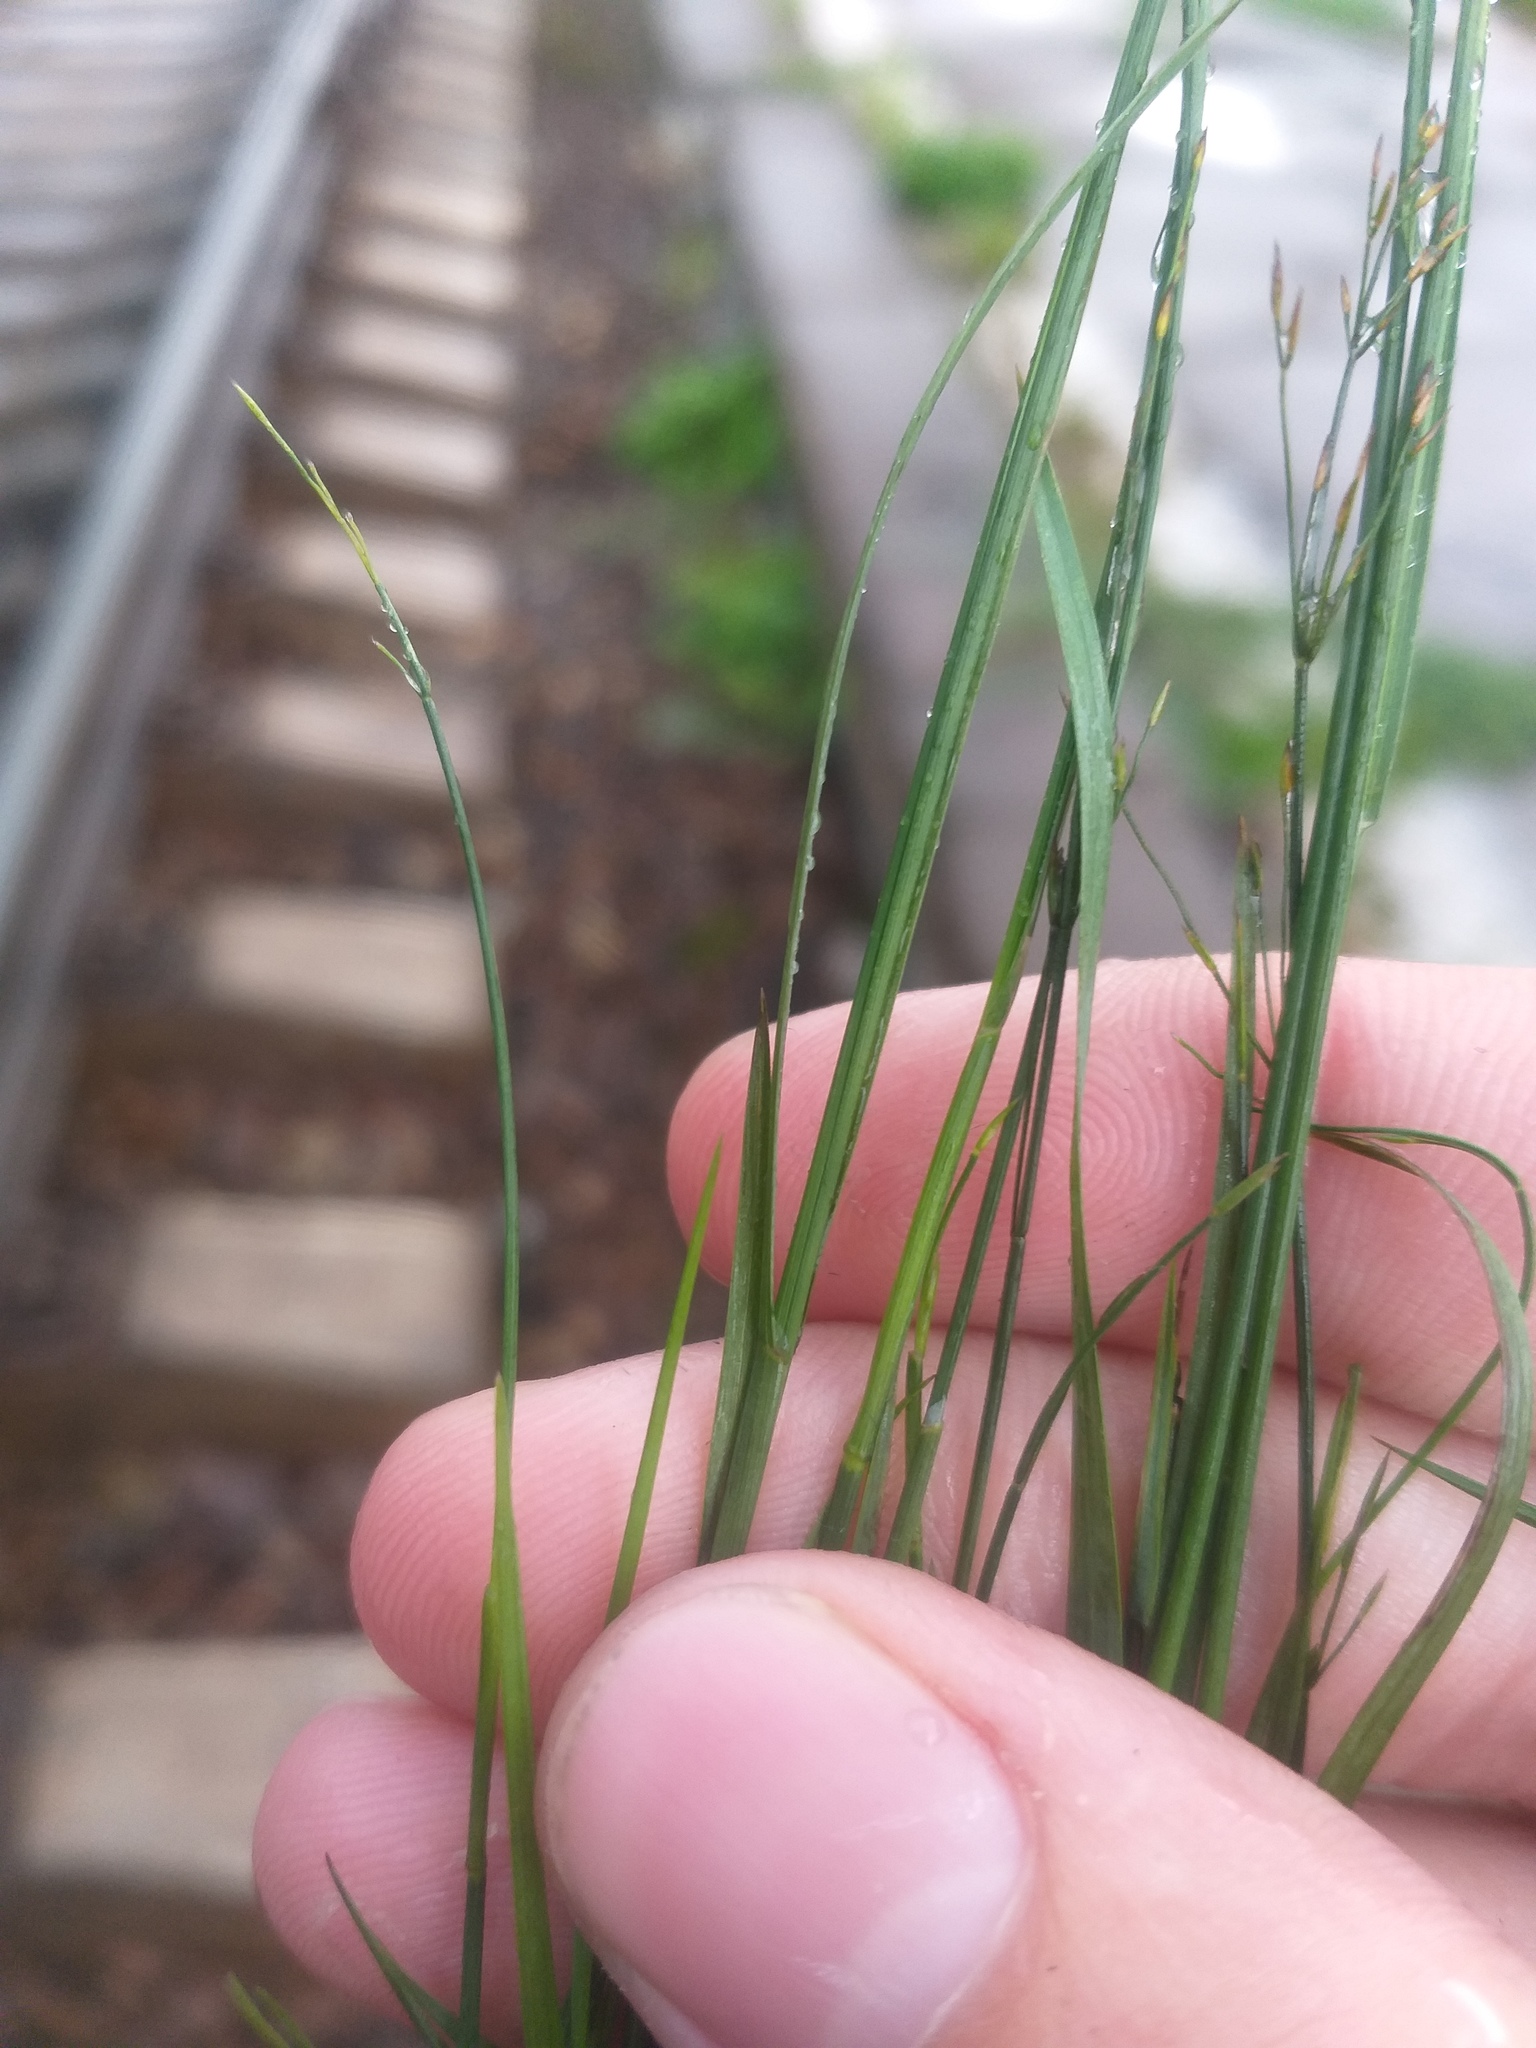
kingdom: Plantae
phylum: Tracheophyta
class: Liliopsida
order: Poales
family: Poaceae
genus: Poa
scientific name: Poa compressa
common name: Canada bluegrass
